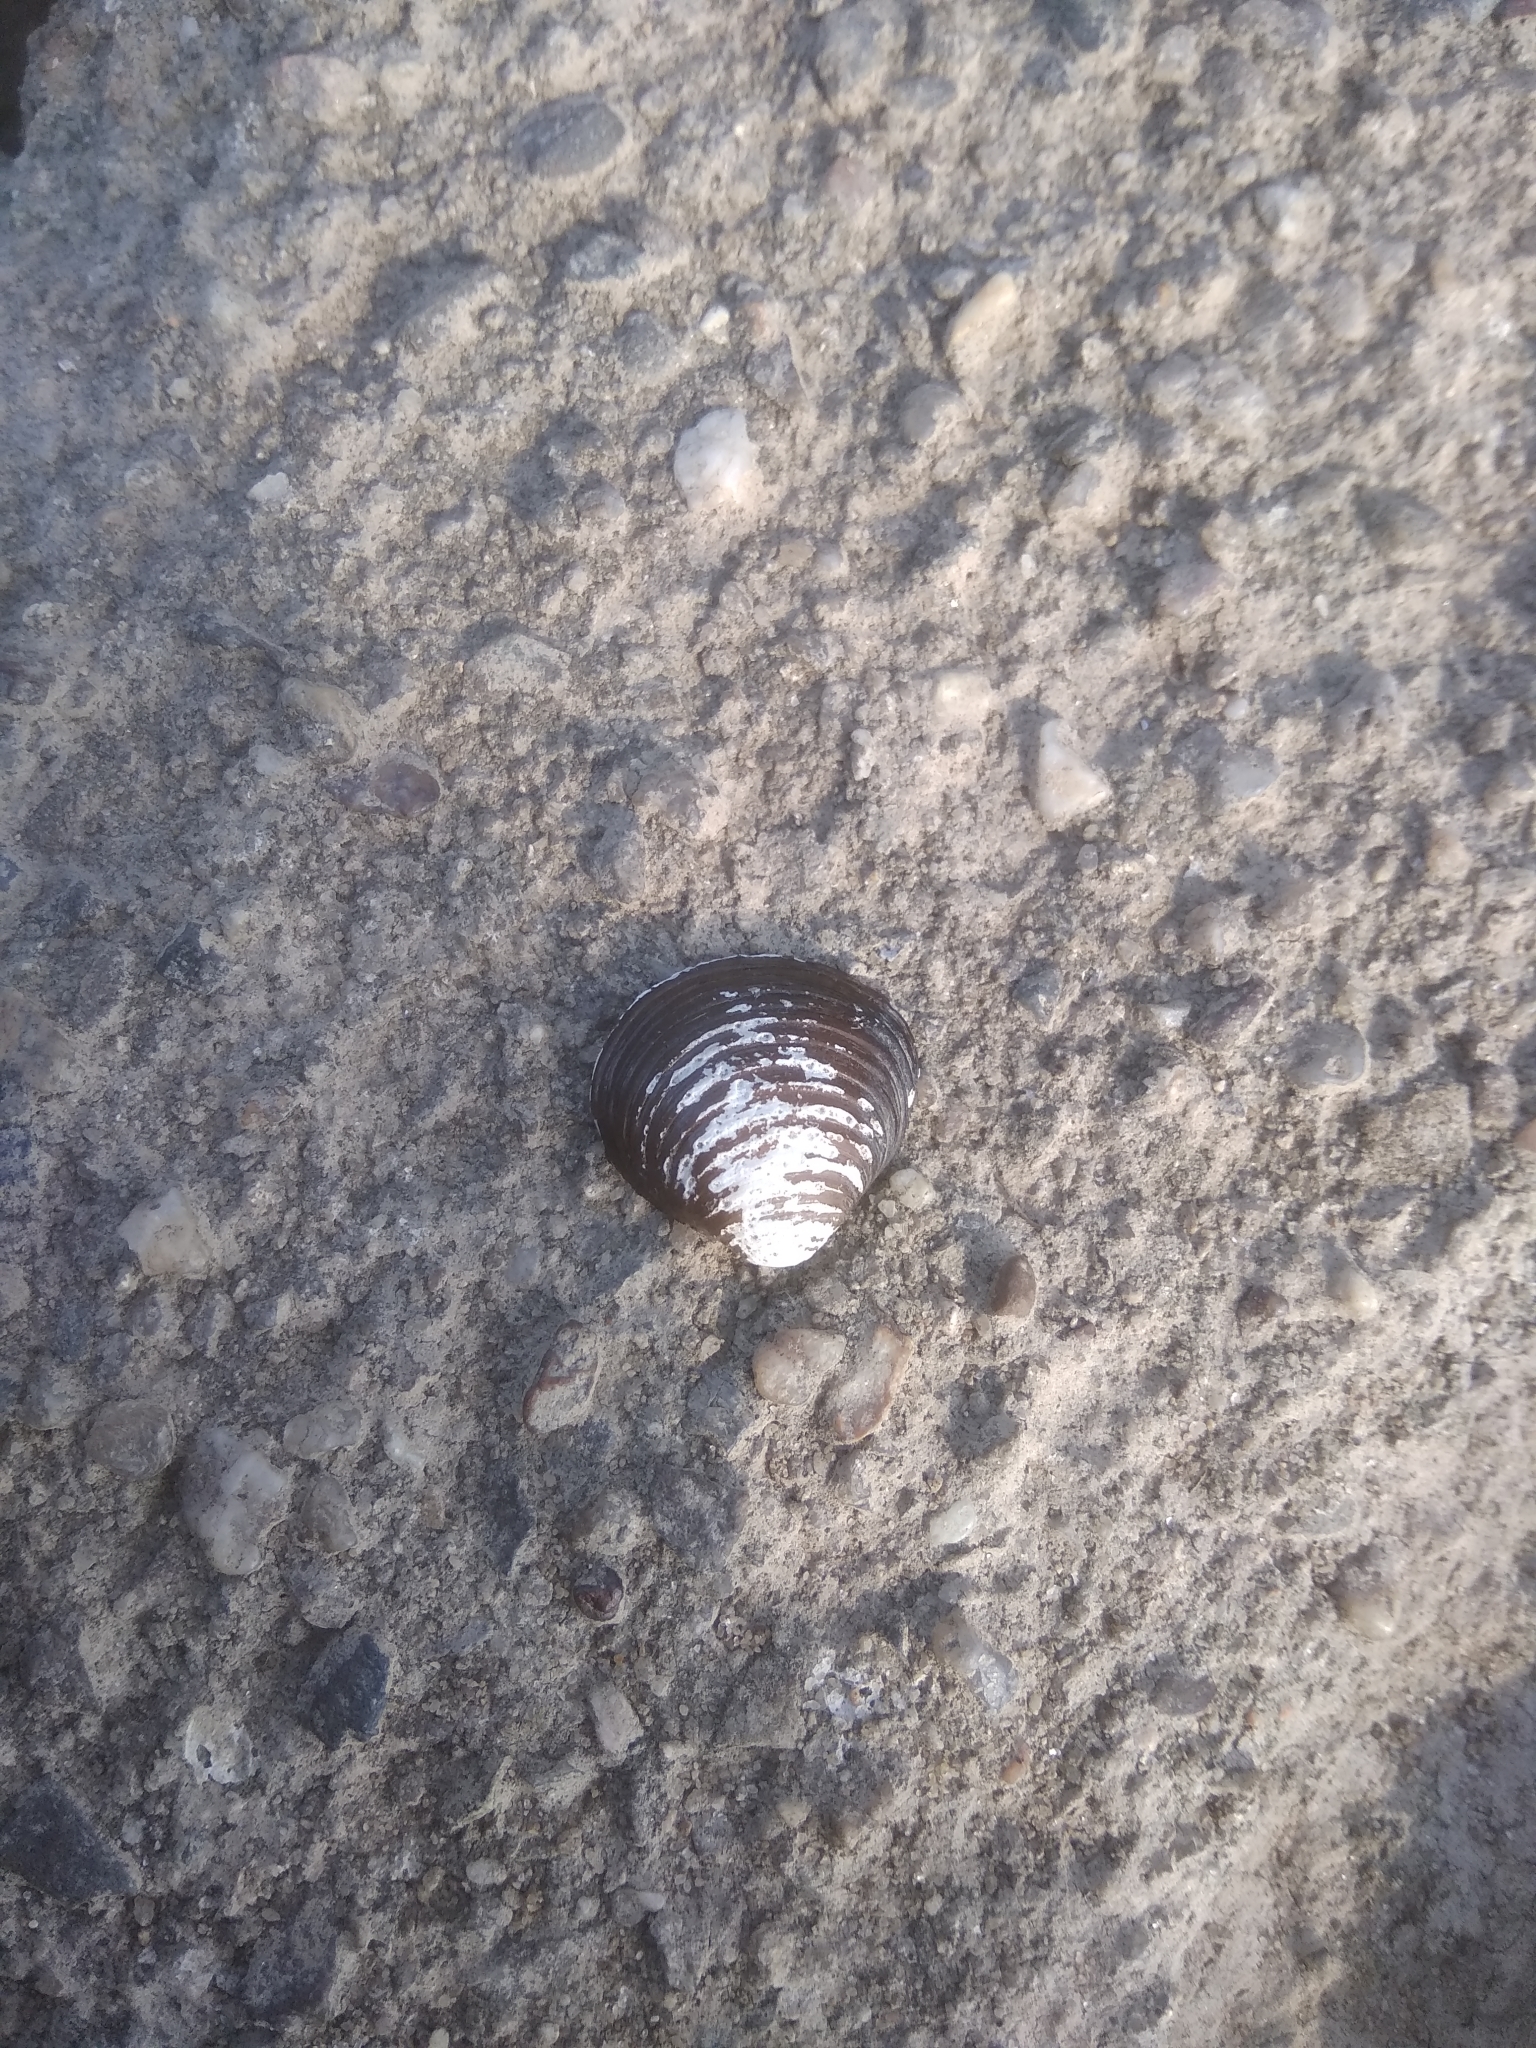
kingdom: Animalia
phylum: Mollusca
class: Bivalvia
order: Venerida
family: Cyrenidae
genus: Corbicula
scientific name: Corbicula fluminea
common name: Asian clam
